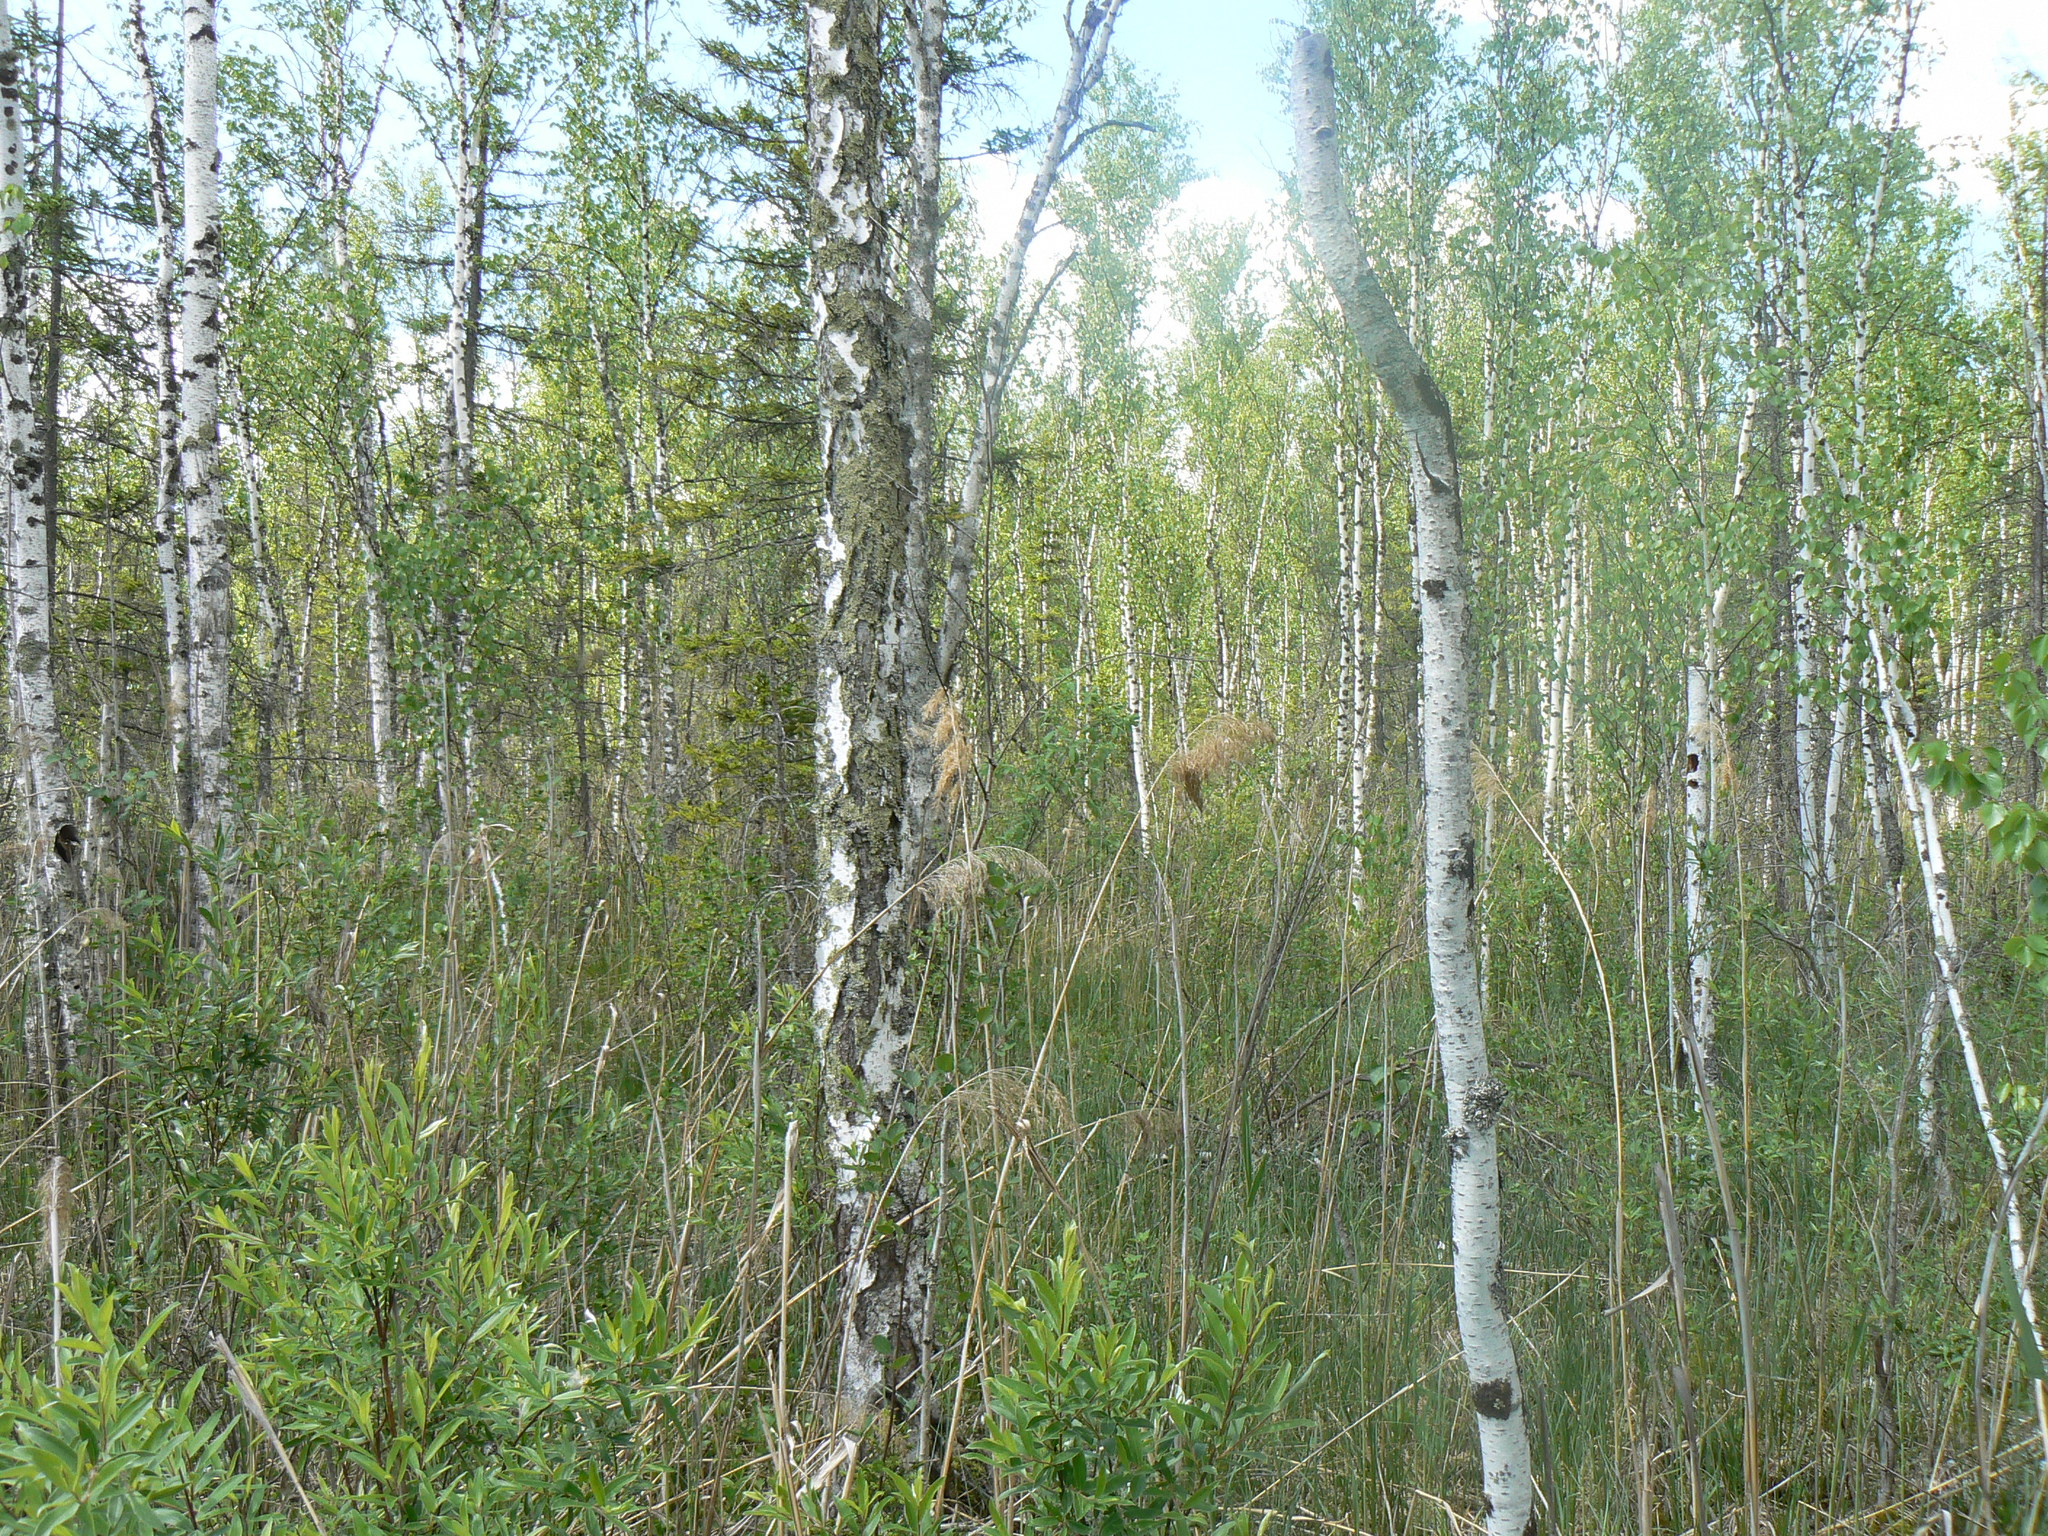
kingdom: Plantae
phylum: Tracheophyta
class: Magnoliopsida
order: Fagales
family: Betulaceae
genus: Betula
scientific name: Betula pubescens
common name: Downy birch
